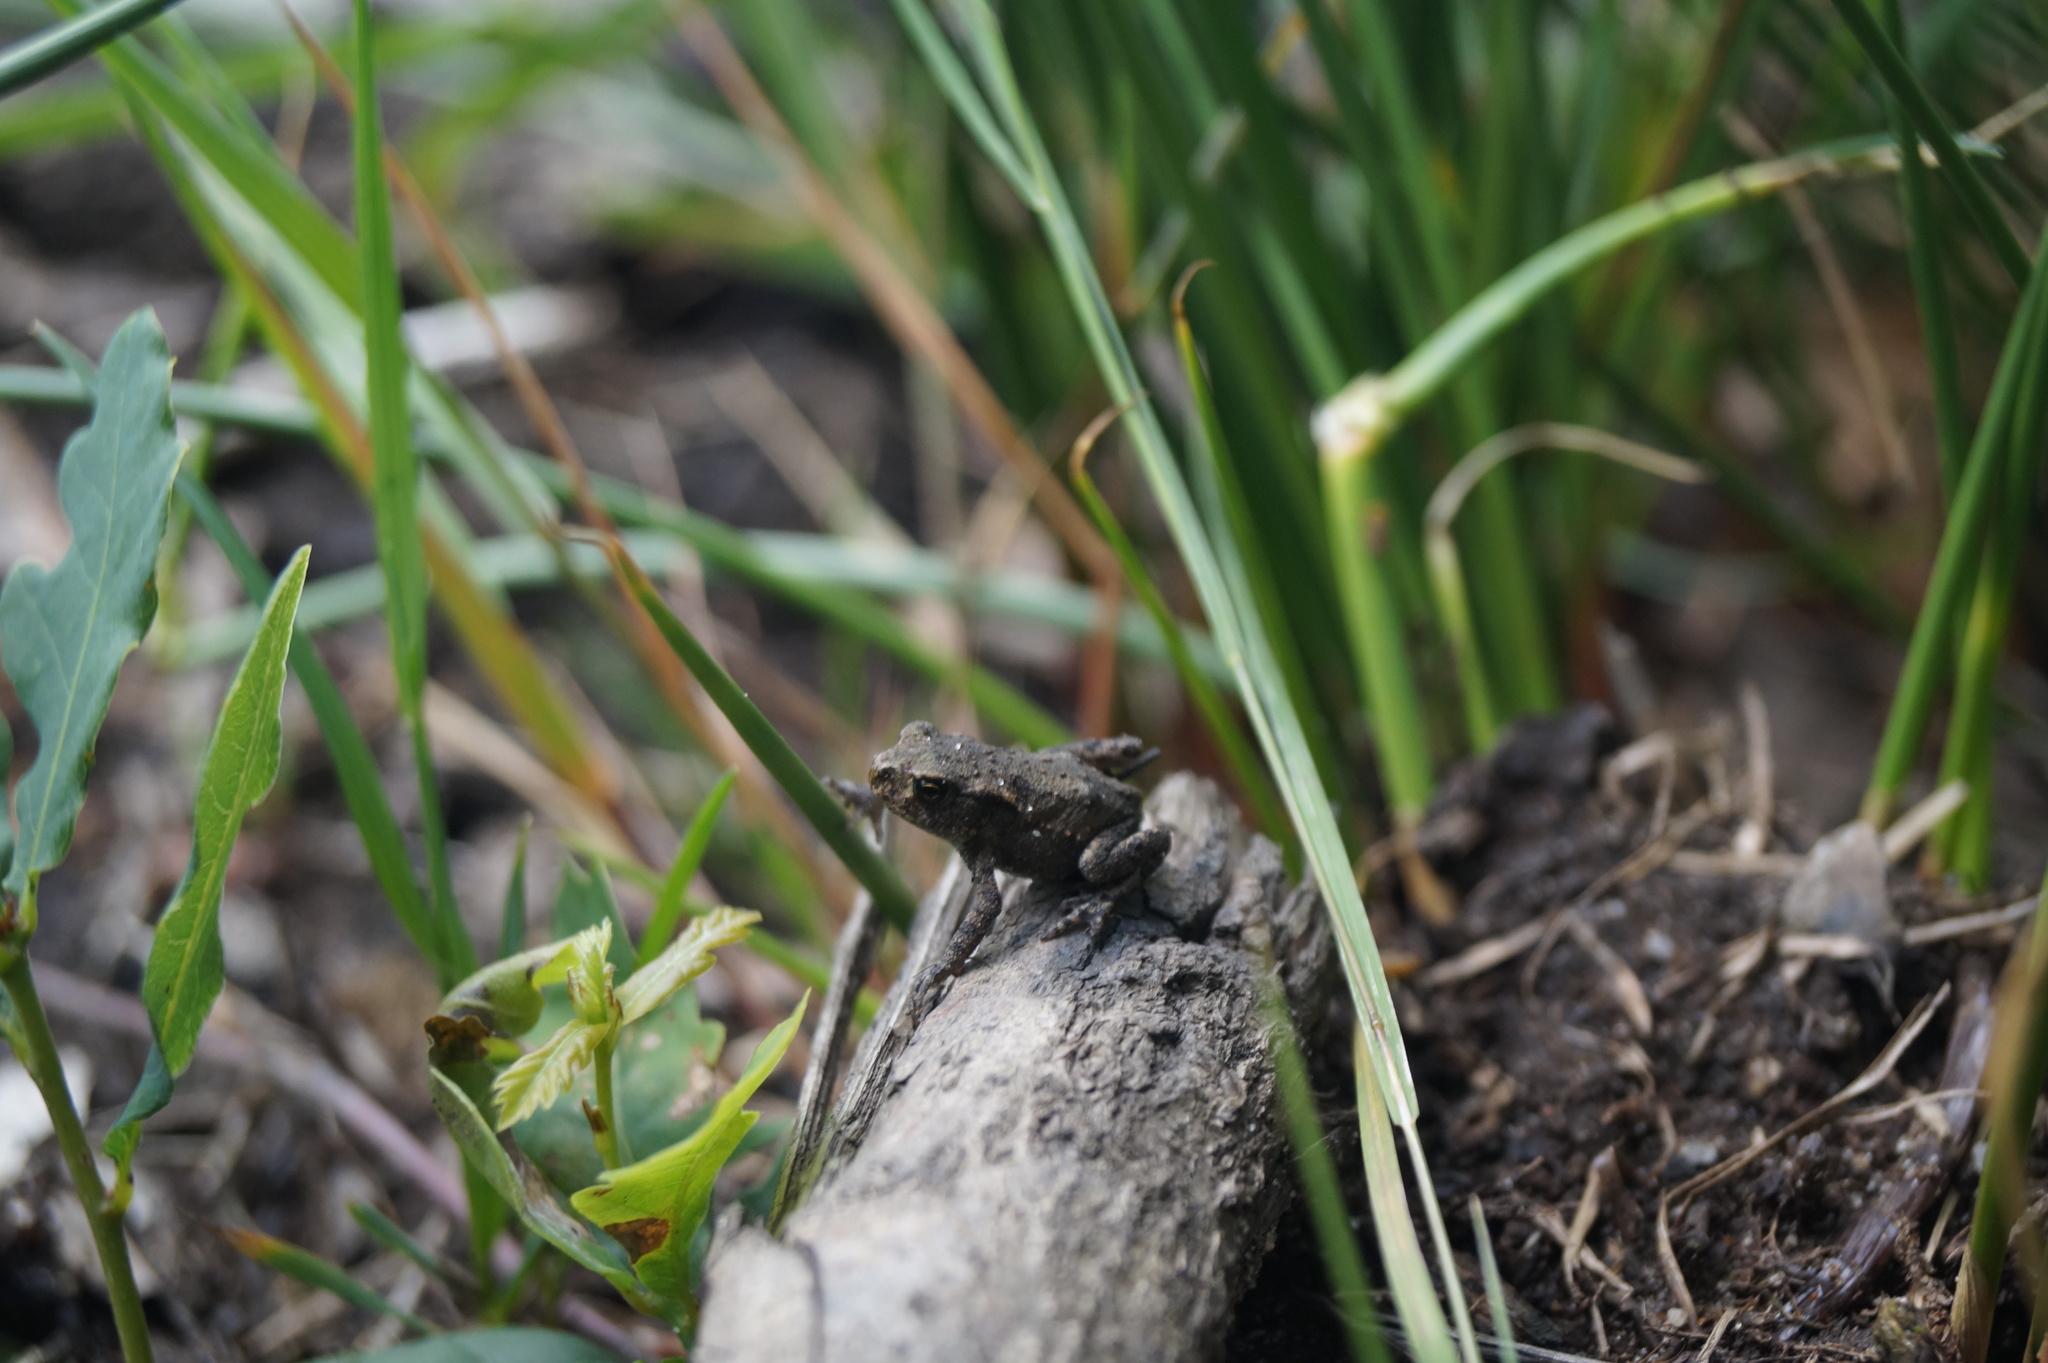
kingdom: Animalia
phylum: Chordata
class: Amphibia
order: Anura
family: Bufonidae
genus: Bufo
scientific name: Bufo bufo
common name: Common toad
